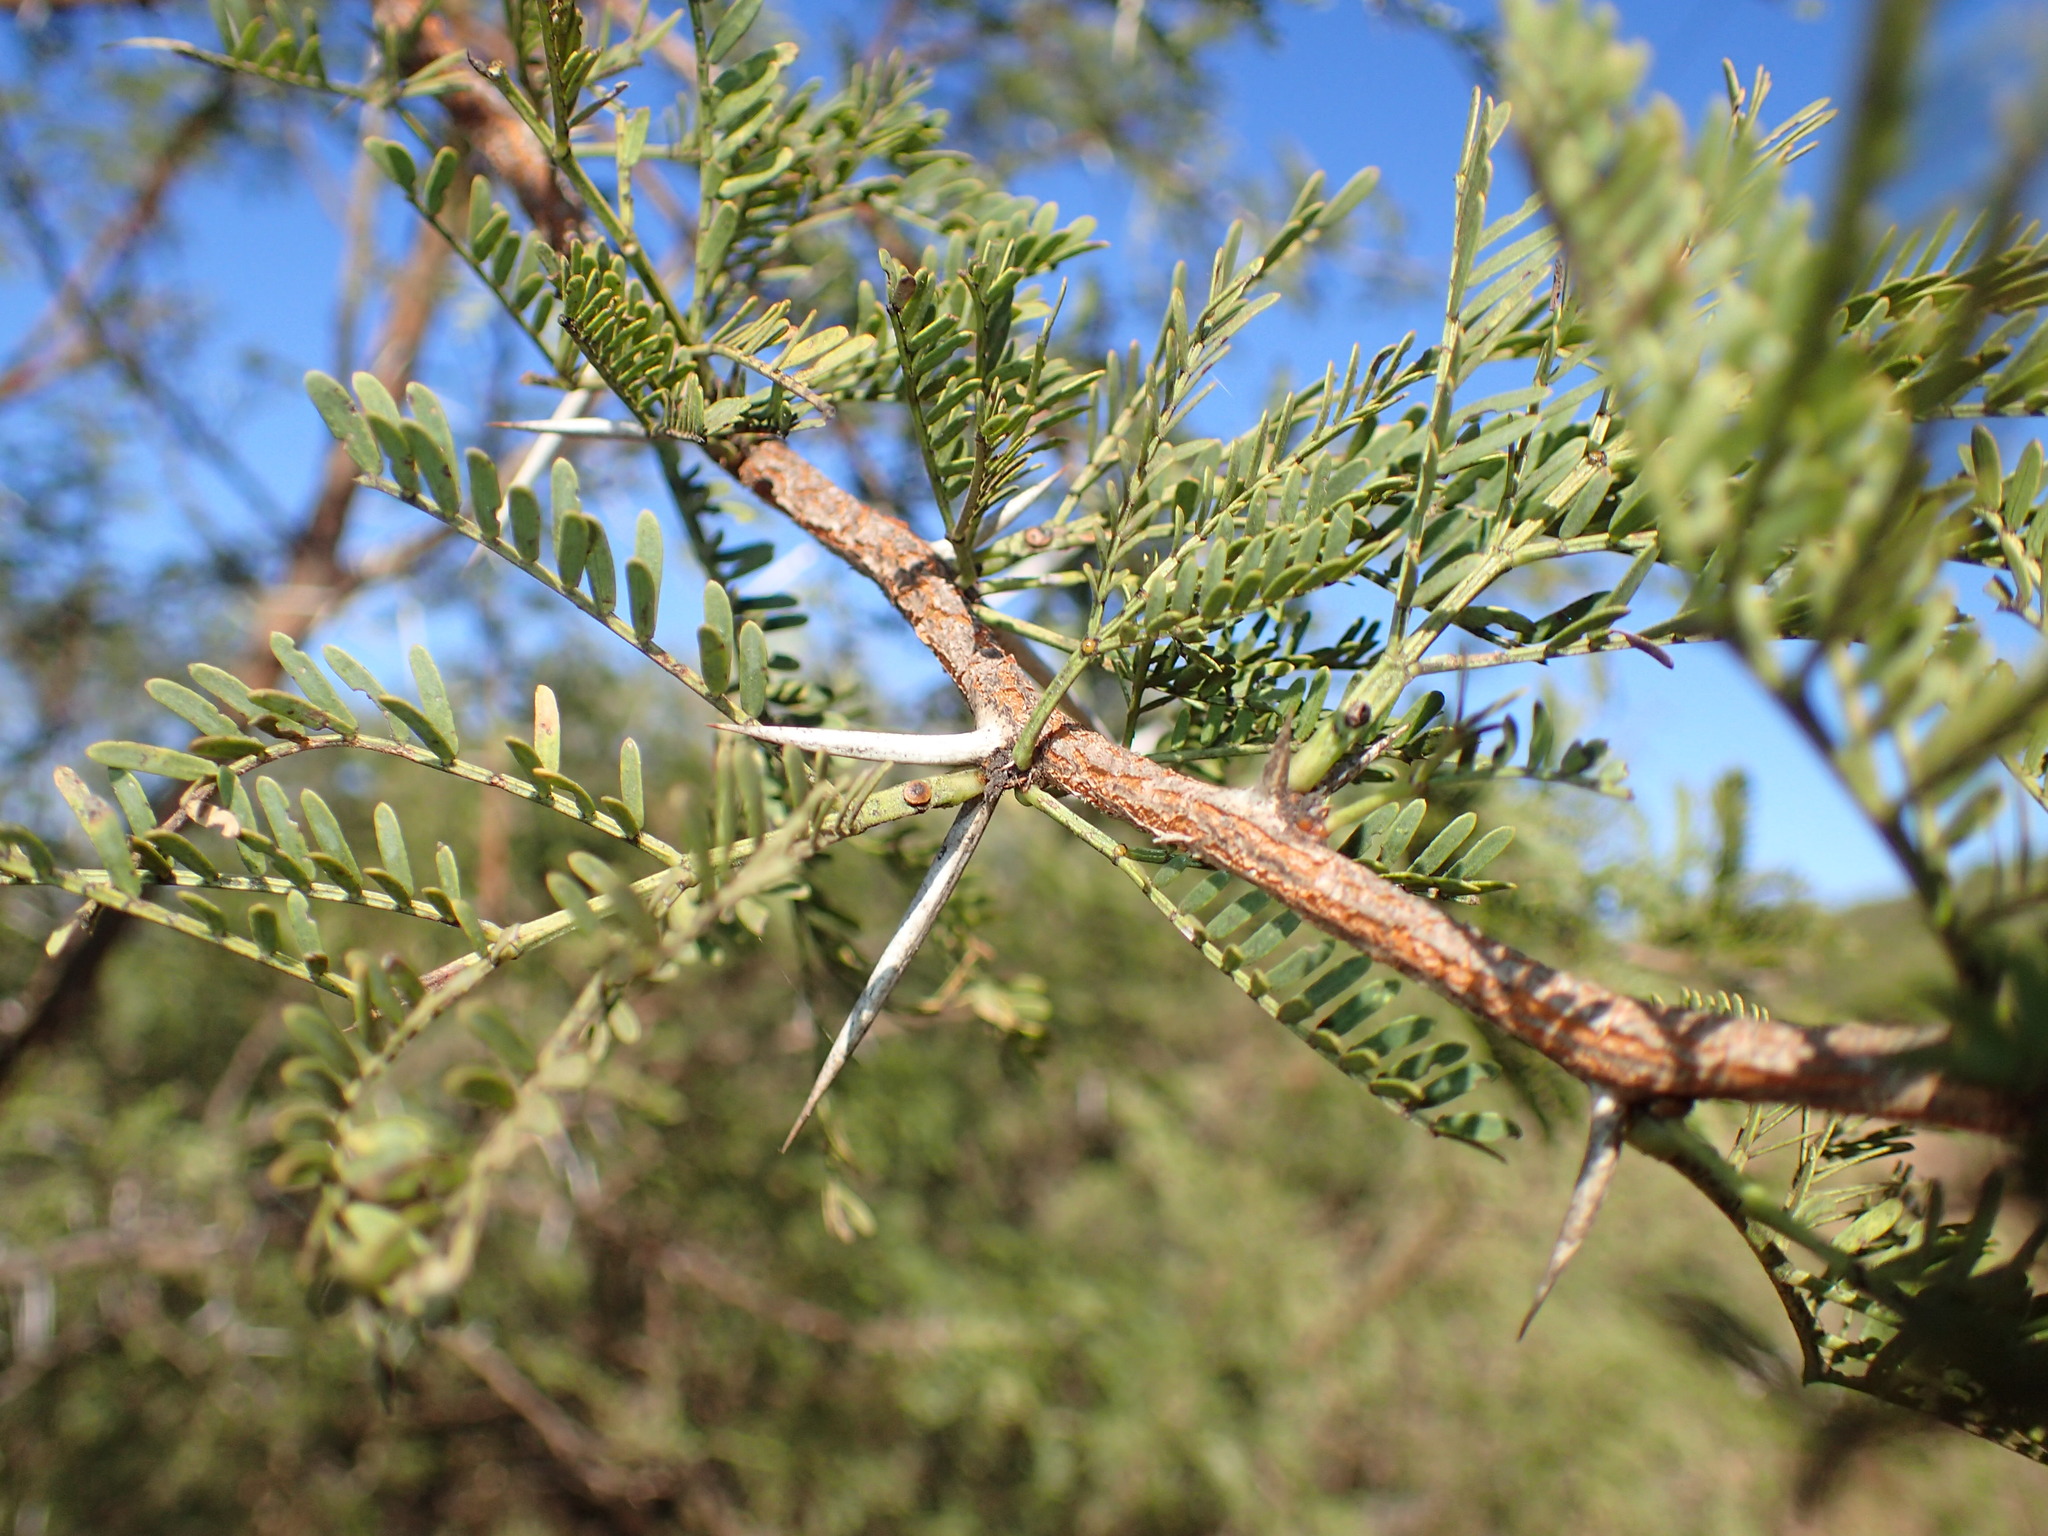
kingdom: Plantae
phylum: Tracheophyta
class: Magnoliopsida
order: Fabales
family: Fabaceae
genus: Vachellia
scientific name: Vachellia natalitia
